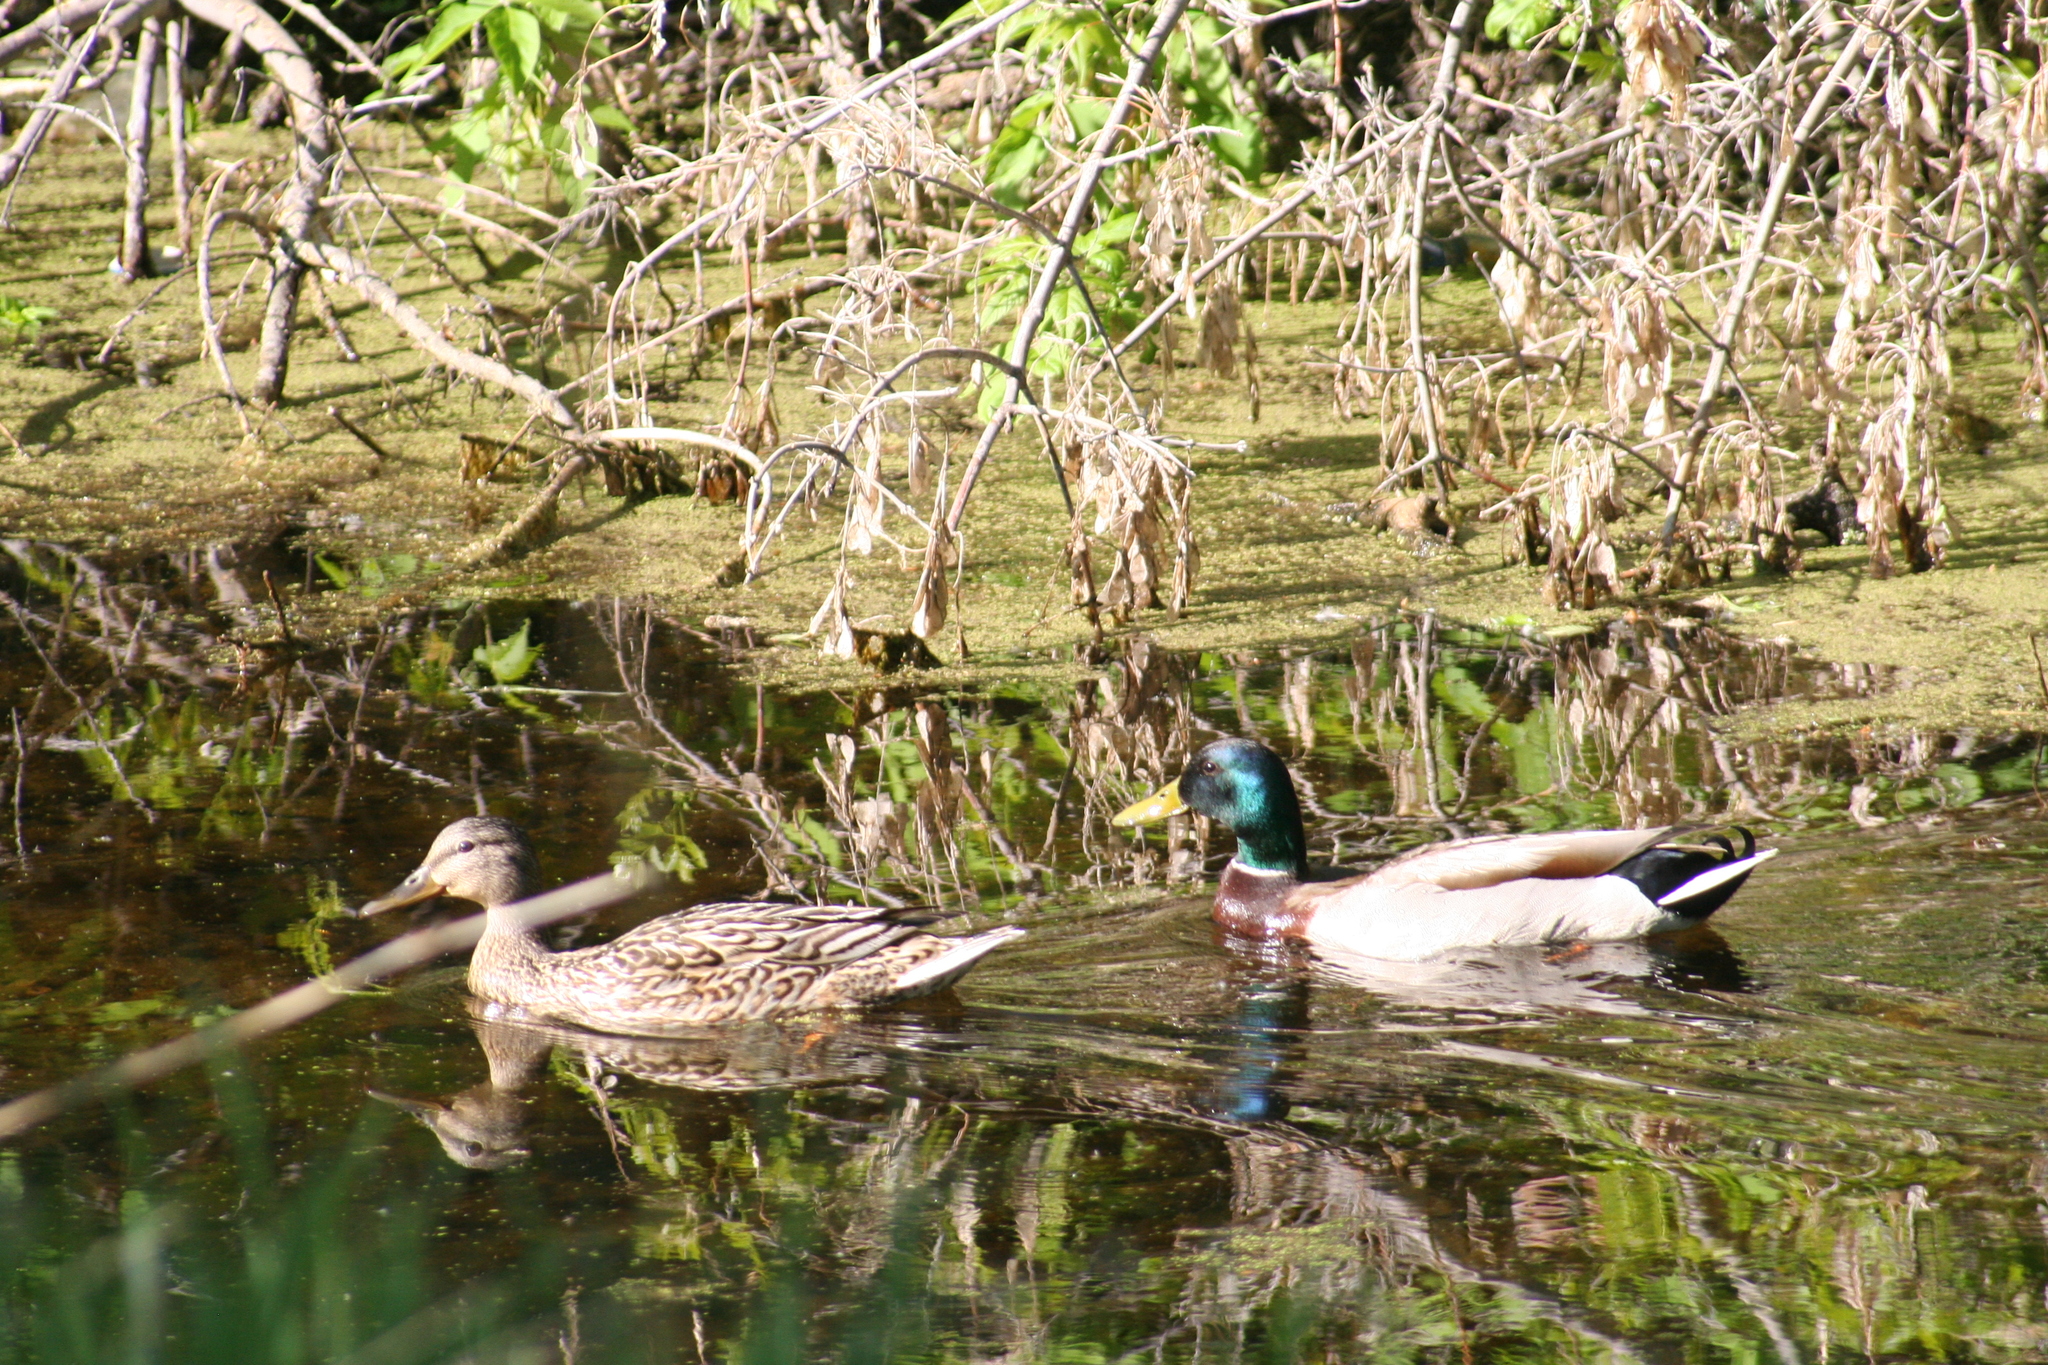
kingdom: Animalia
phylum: Chordata
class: Aves
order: Anseriformes
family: Anatidae
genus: Anas
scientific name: Anas platyrhynchos
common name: Mallard
